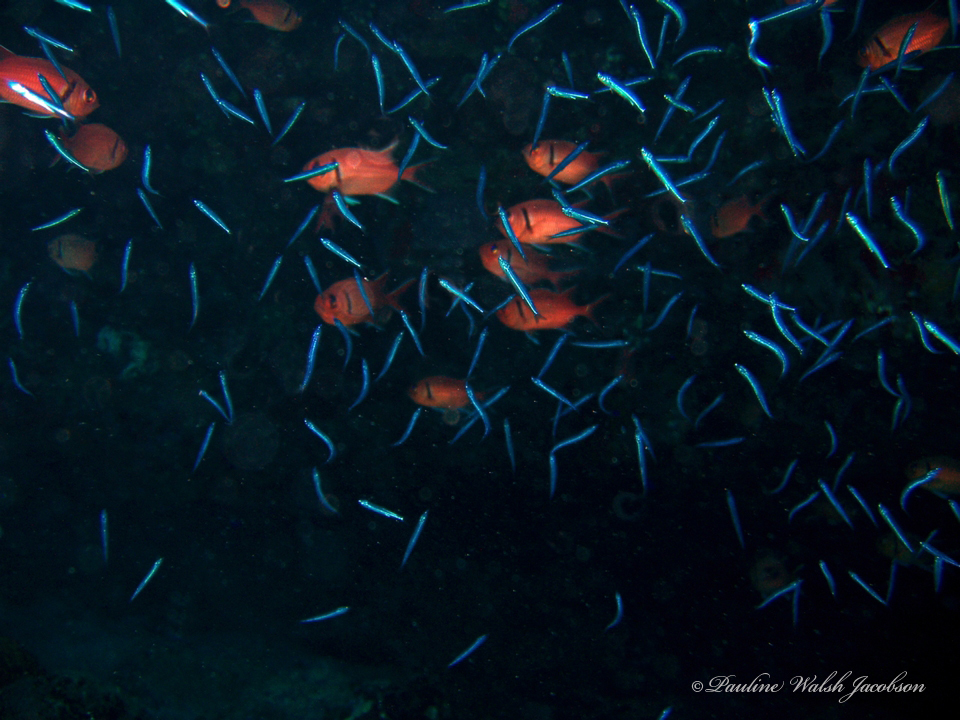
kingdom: Animalia
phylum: Chordata
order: Beryciformes
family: Holocentridae
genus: Myripristis
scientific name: Myripristis jacobus
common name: Blackbar soldierfish
